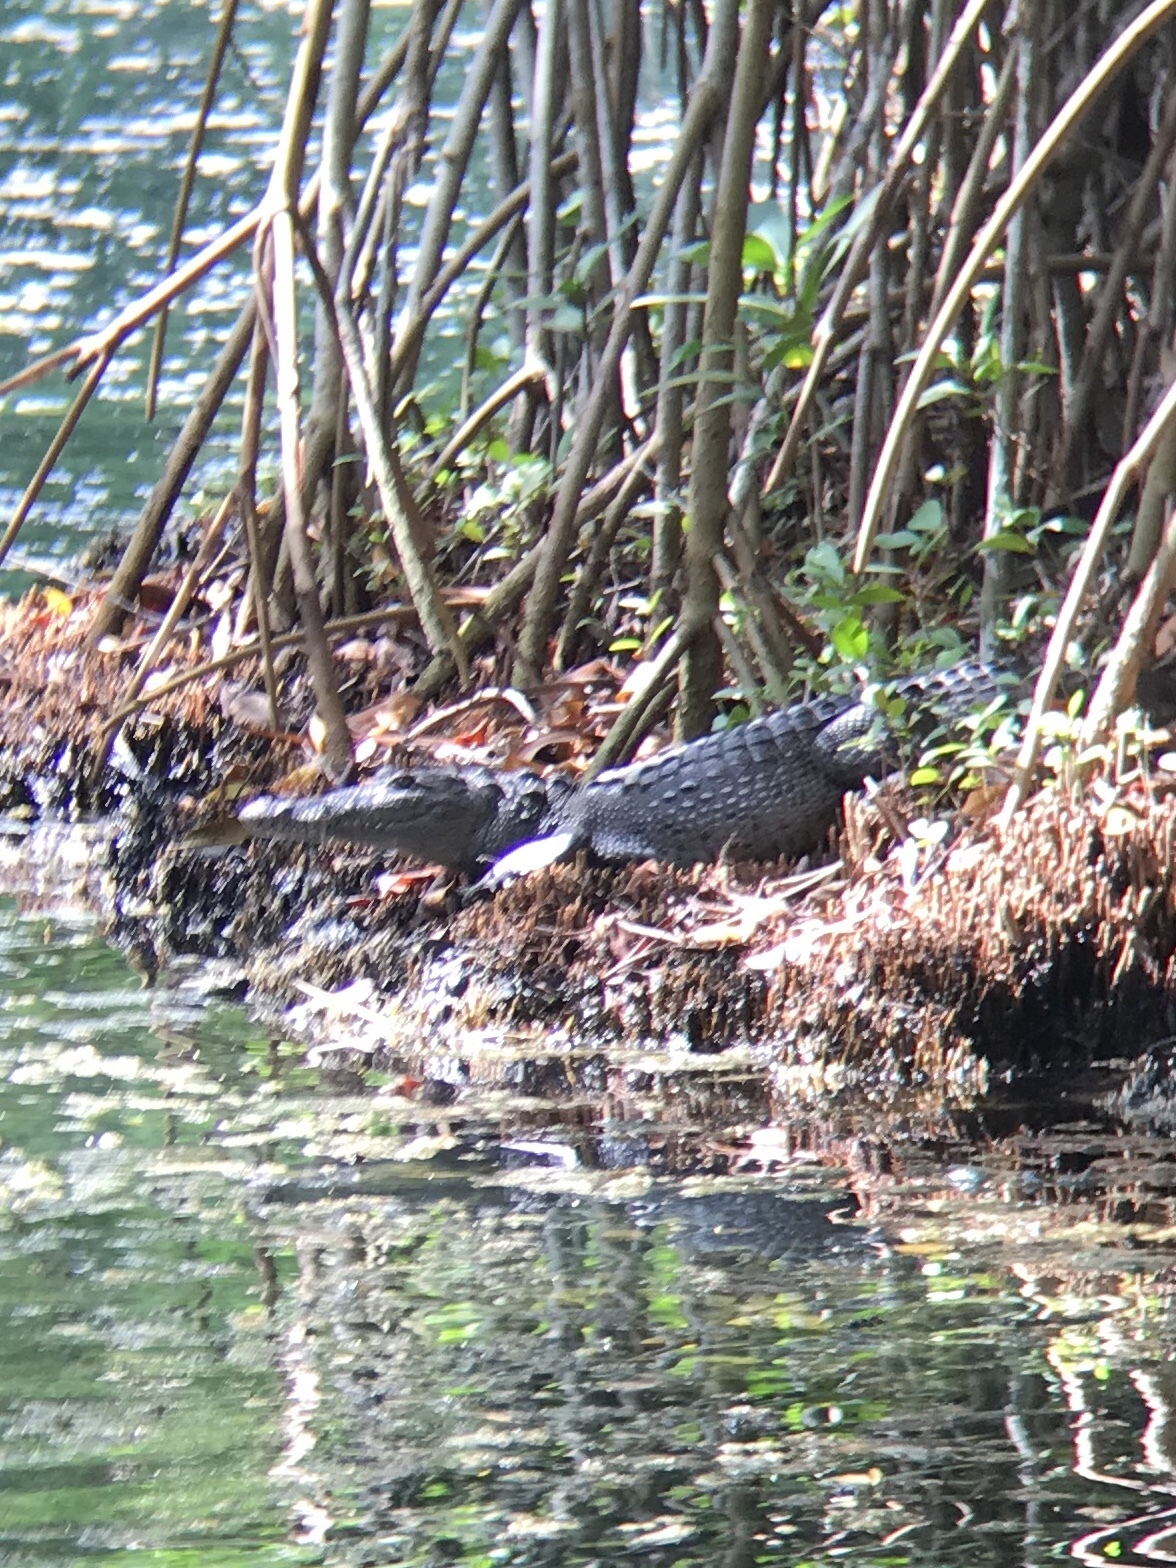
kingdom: Animalia
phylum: Chordata
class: Crocodylia
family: Crocodylidae
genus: Crocodylus
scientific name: Crocodylus acutus
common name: American crocodile
